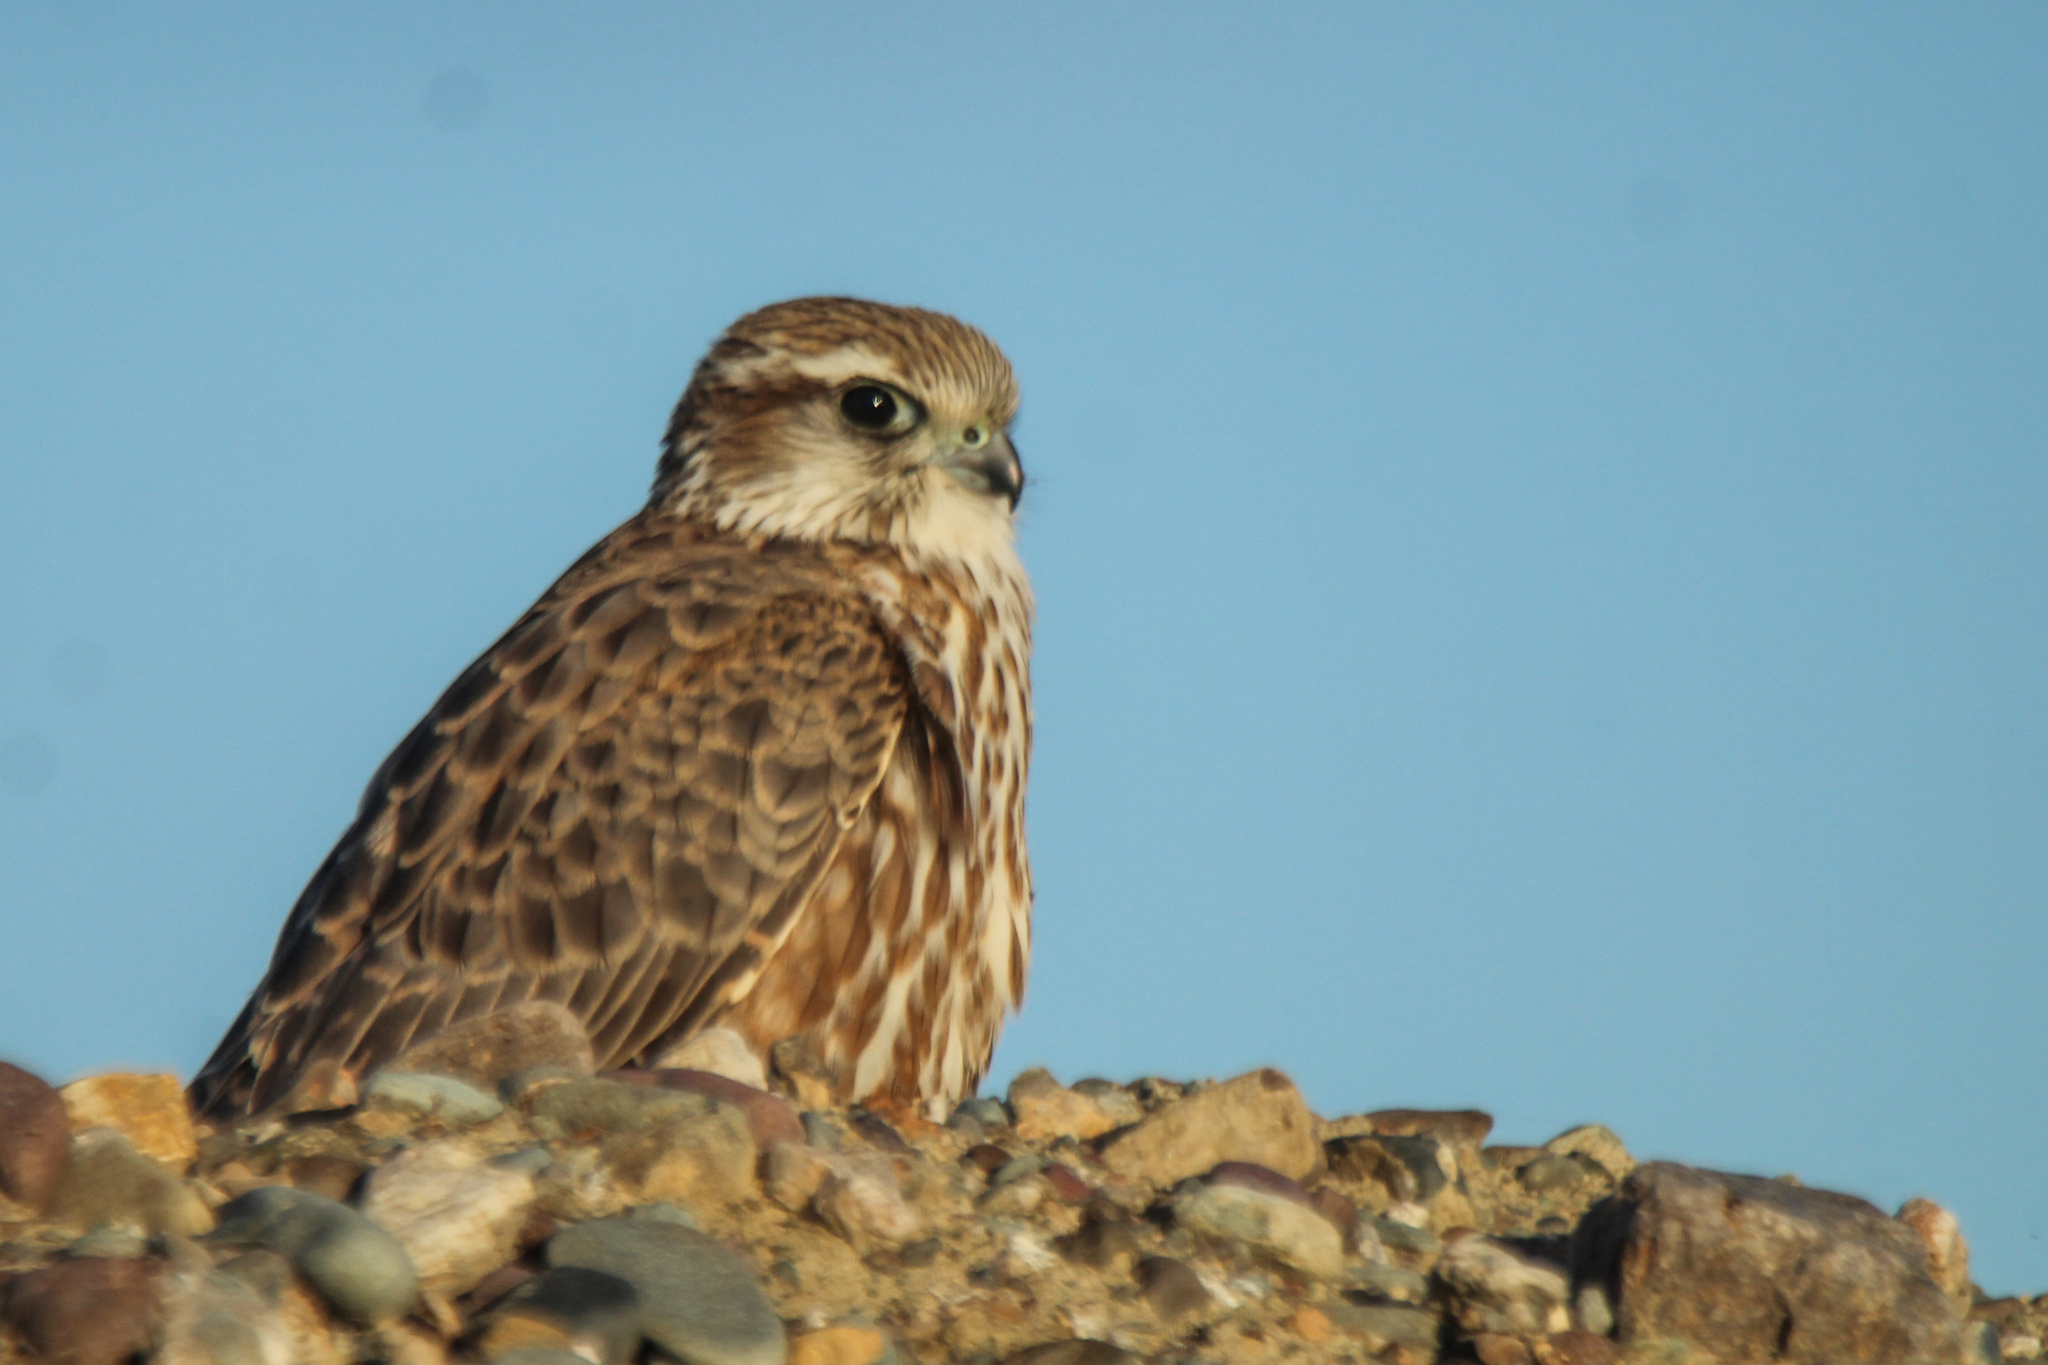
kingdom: Animalia
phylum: Chordata
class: Aves
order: Falconiformes
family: Falconidae
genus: Falco
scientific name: Falco columbarius
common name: Merlin
